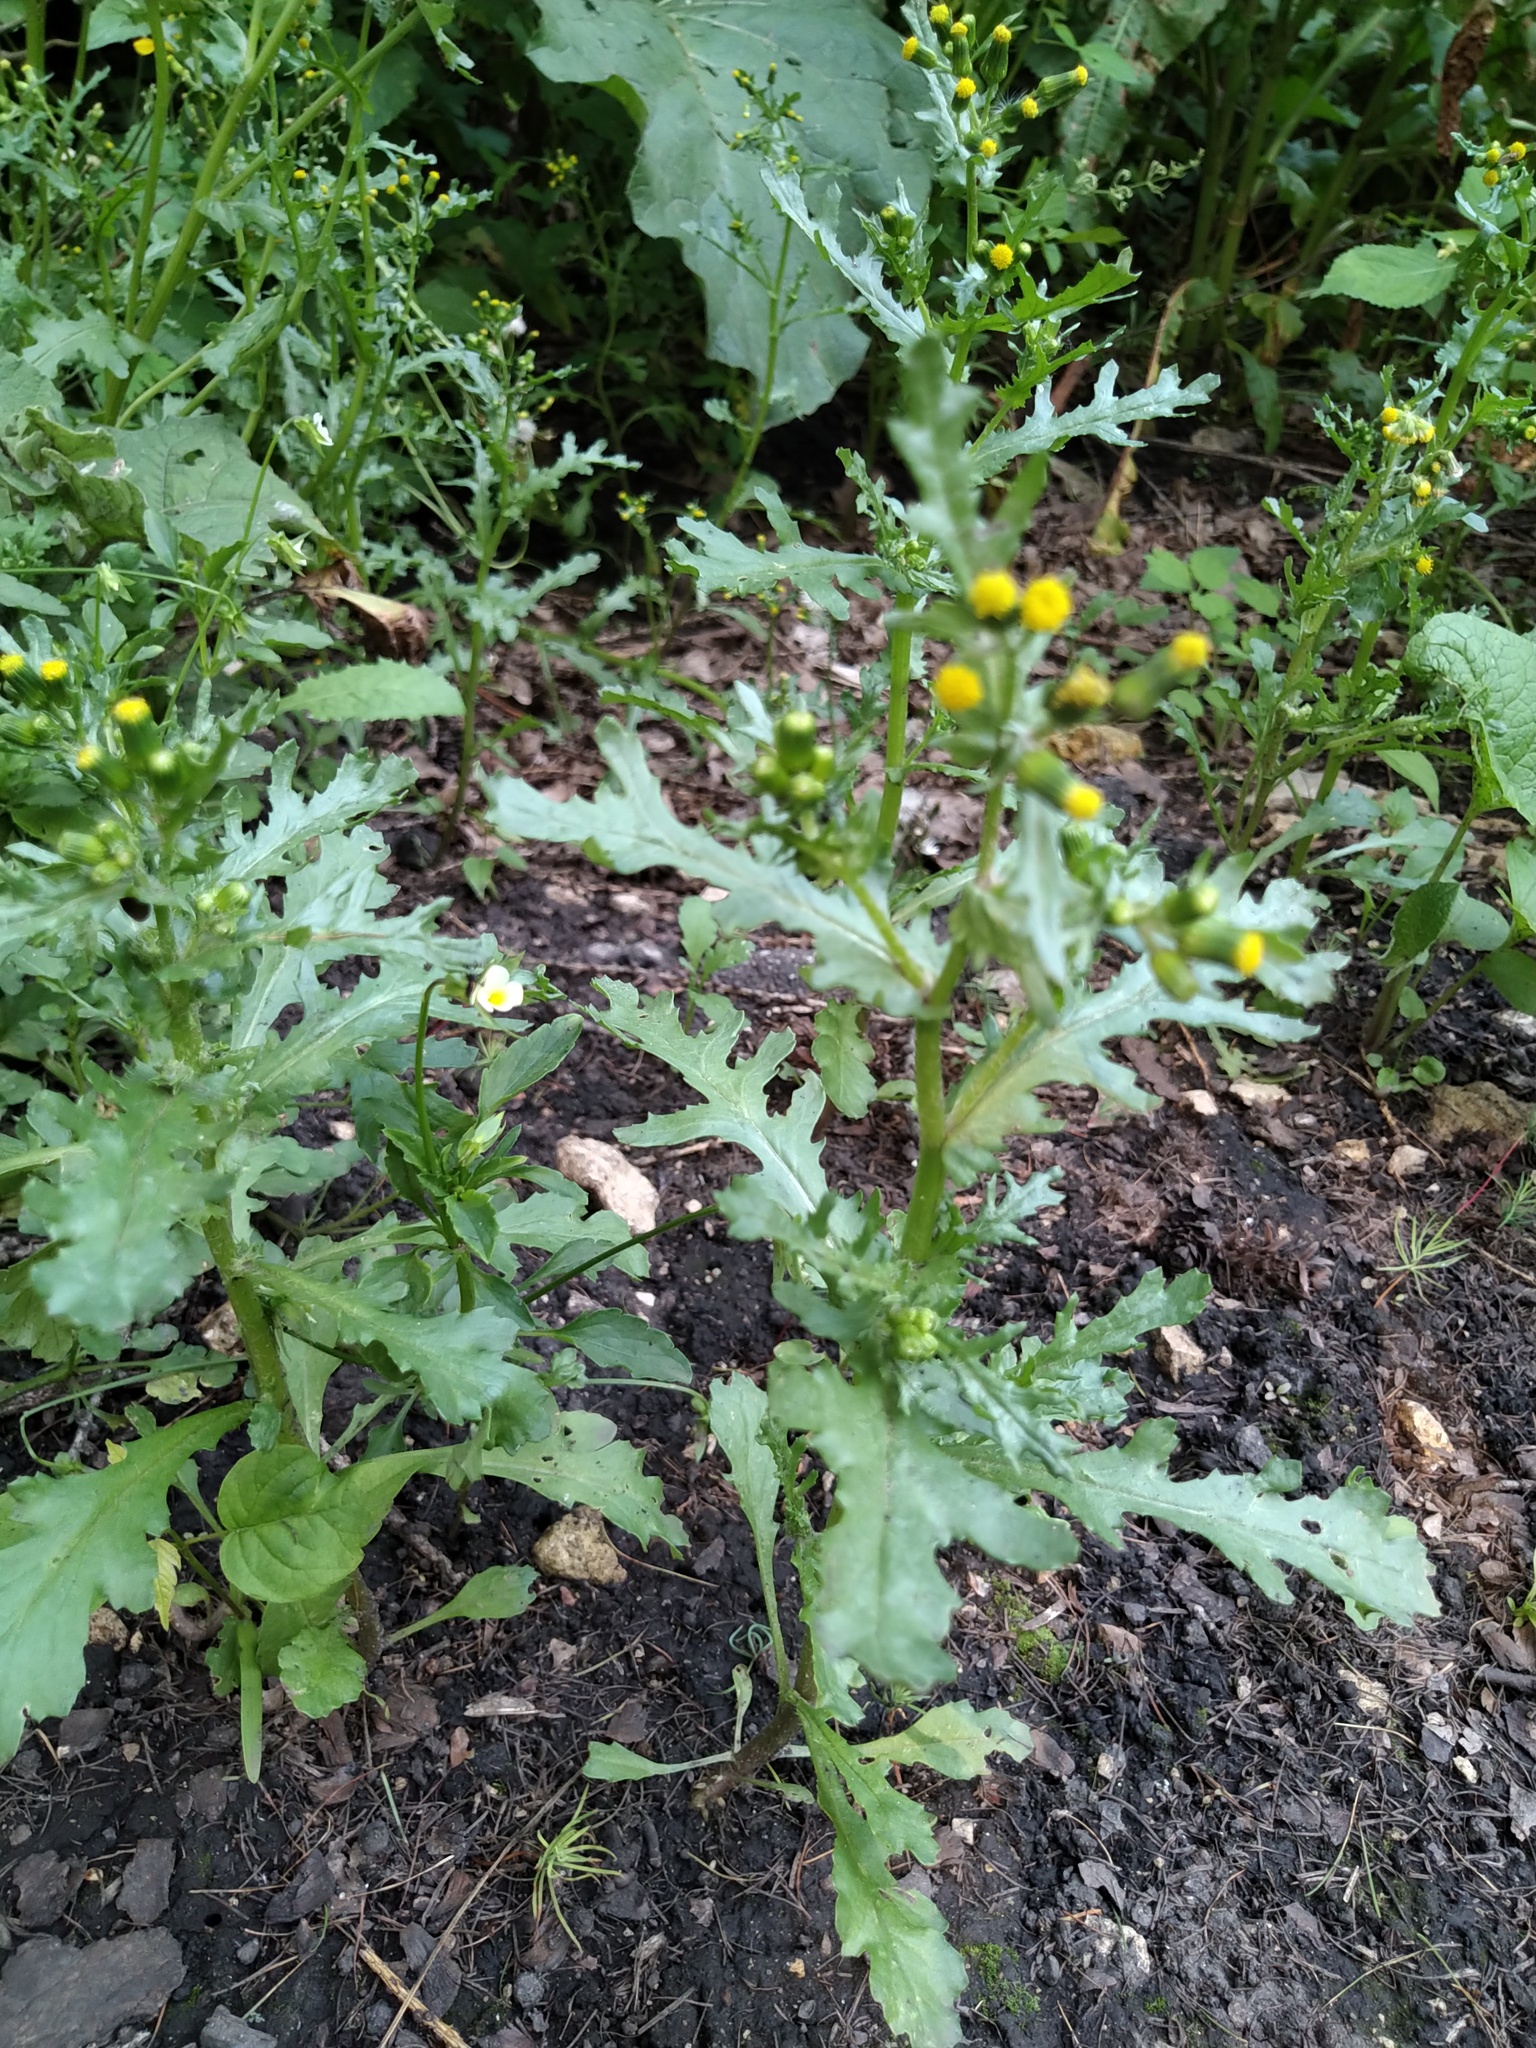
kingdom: Plantae
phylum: Tracheophyta
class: Magnoliopsida
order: Asterales
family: Asteraceae
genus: Senecio
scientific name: Senecio vulgaris
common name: Old-man-in-the-spring
